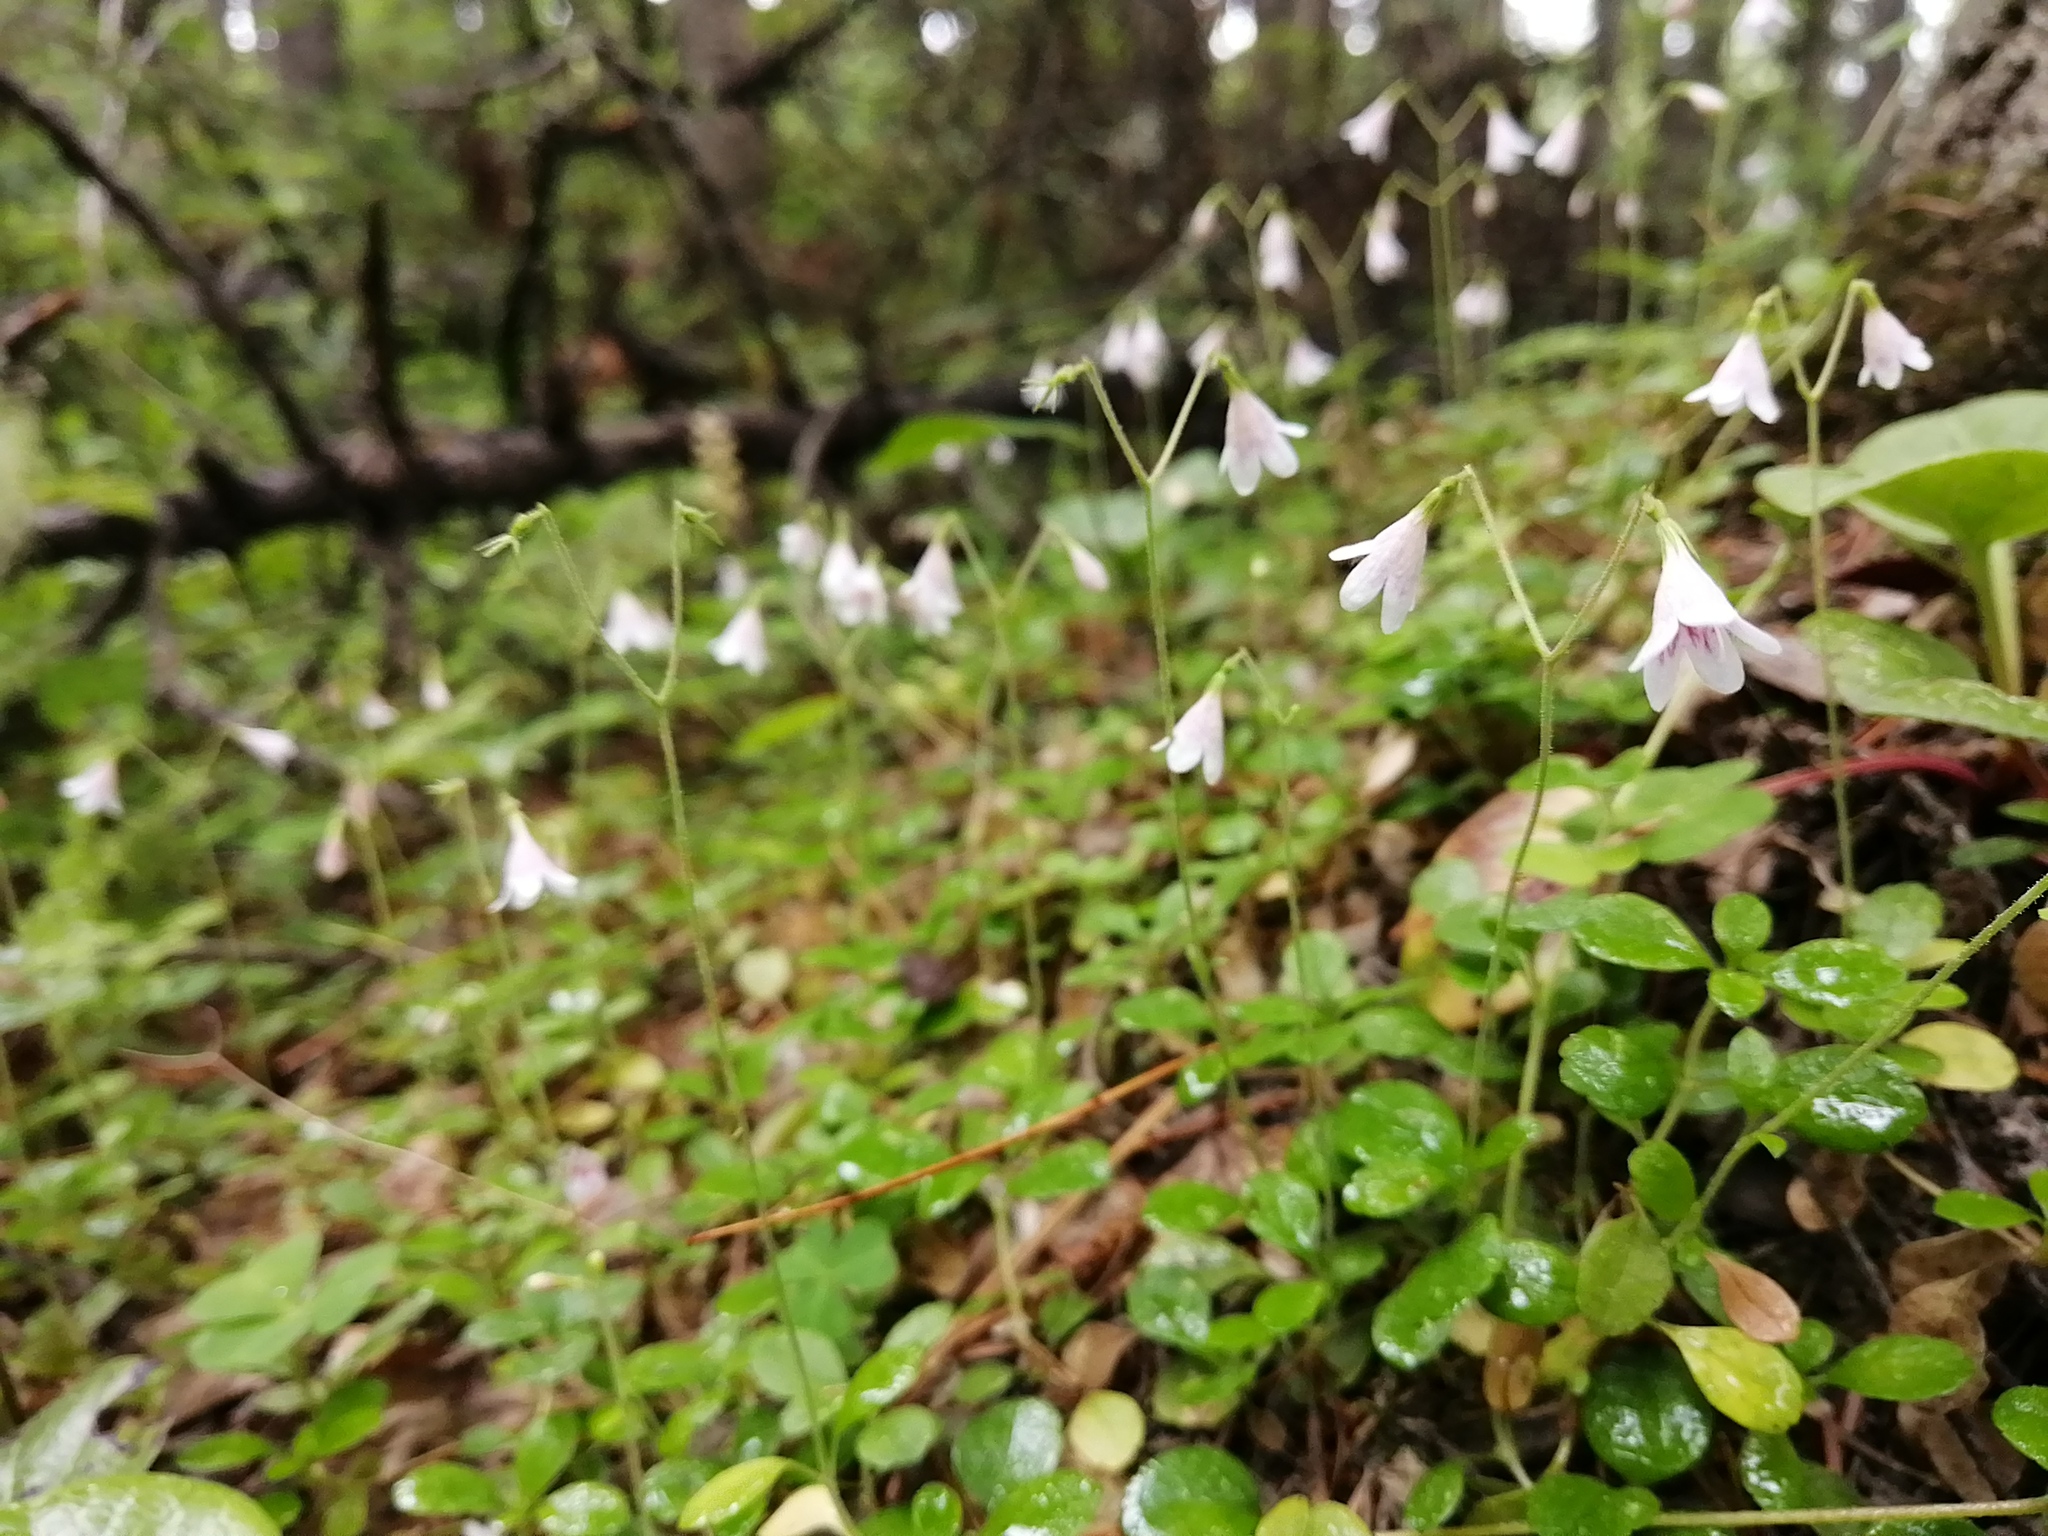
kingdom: Plantae
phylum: Tracheophyta
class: Magnoliopsida
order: Dipsacales
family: Caprifoliaceae
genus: Linnaea
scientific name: Linnaea borealis
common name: Twinflower
